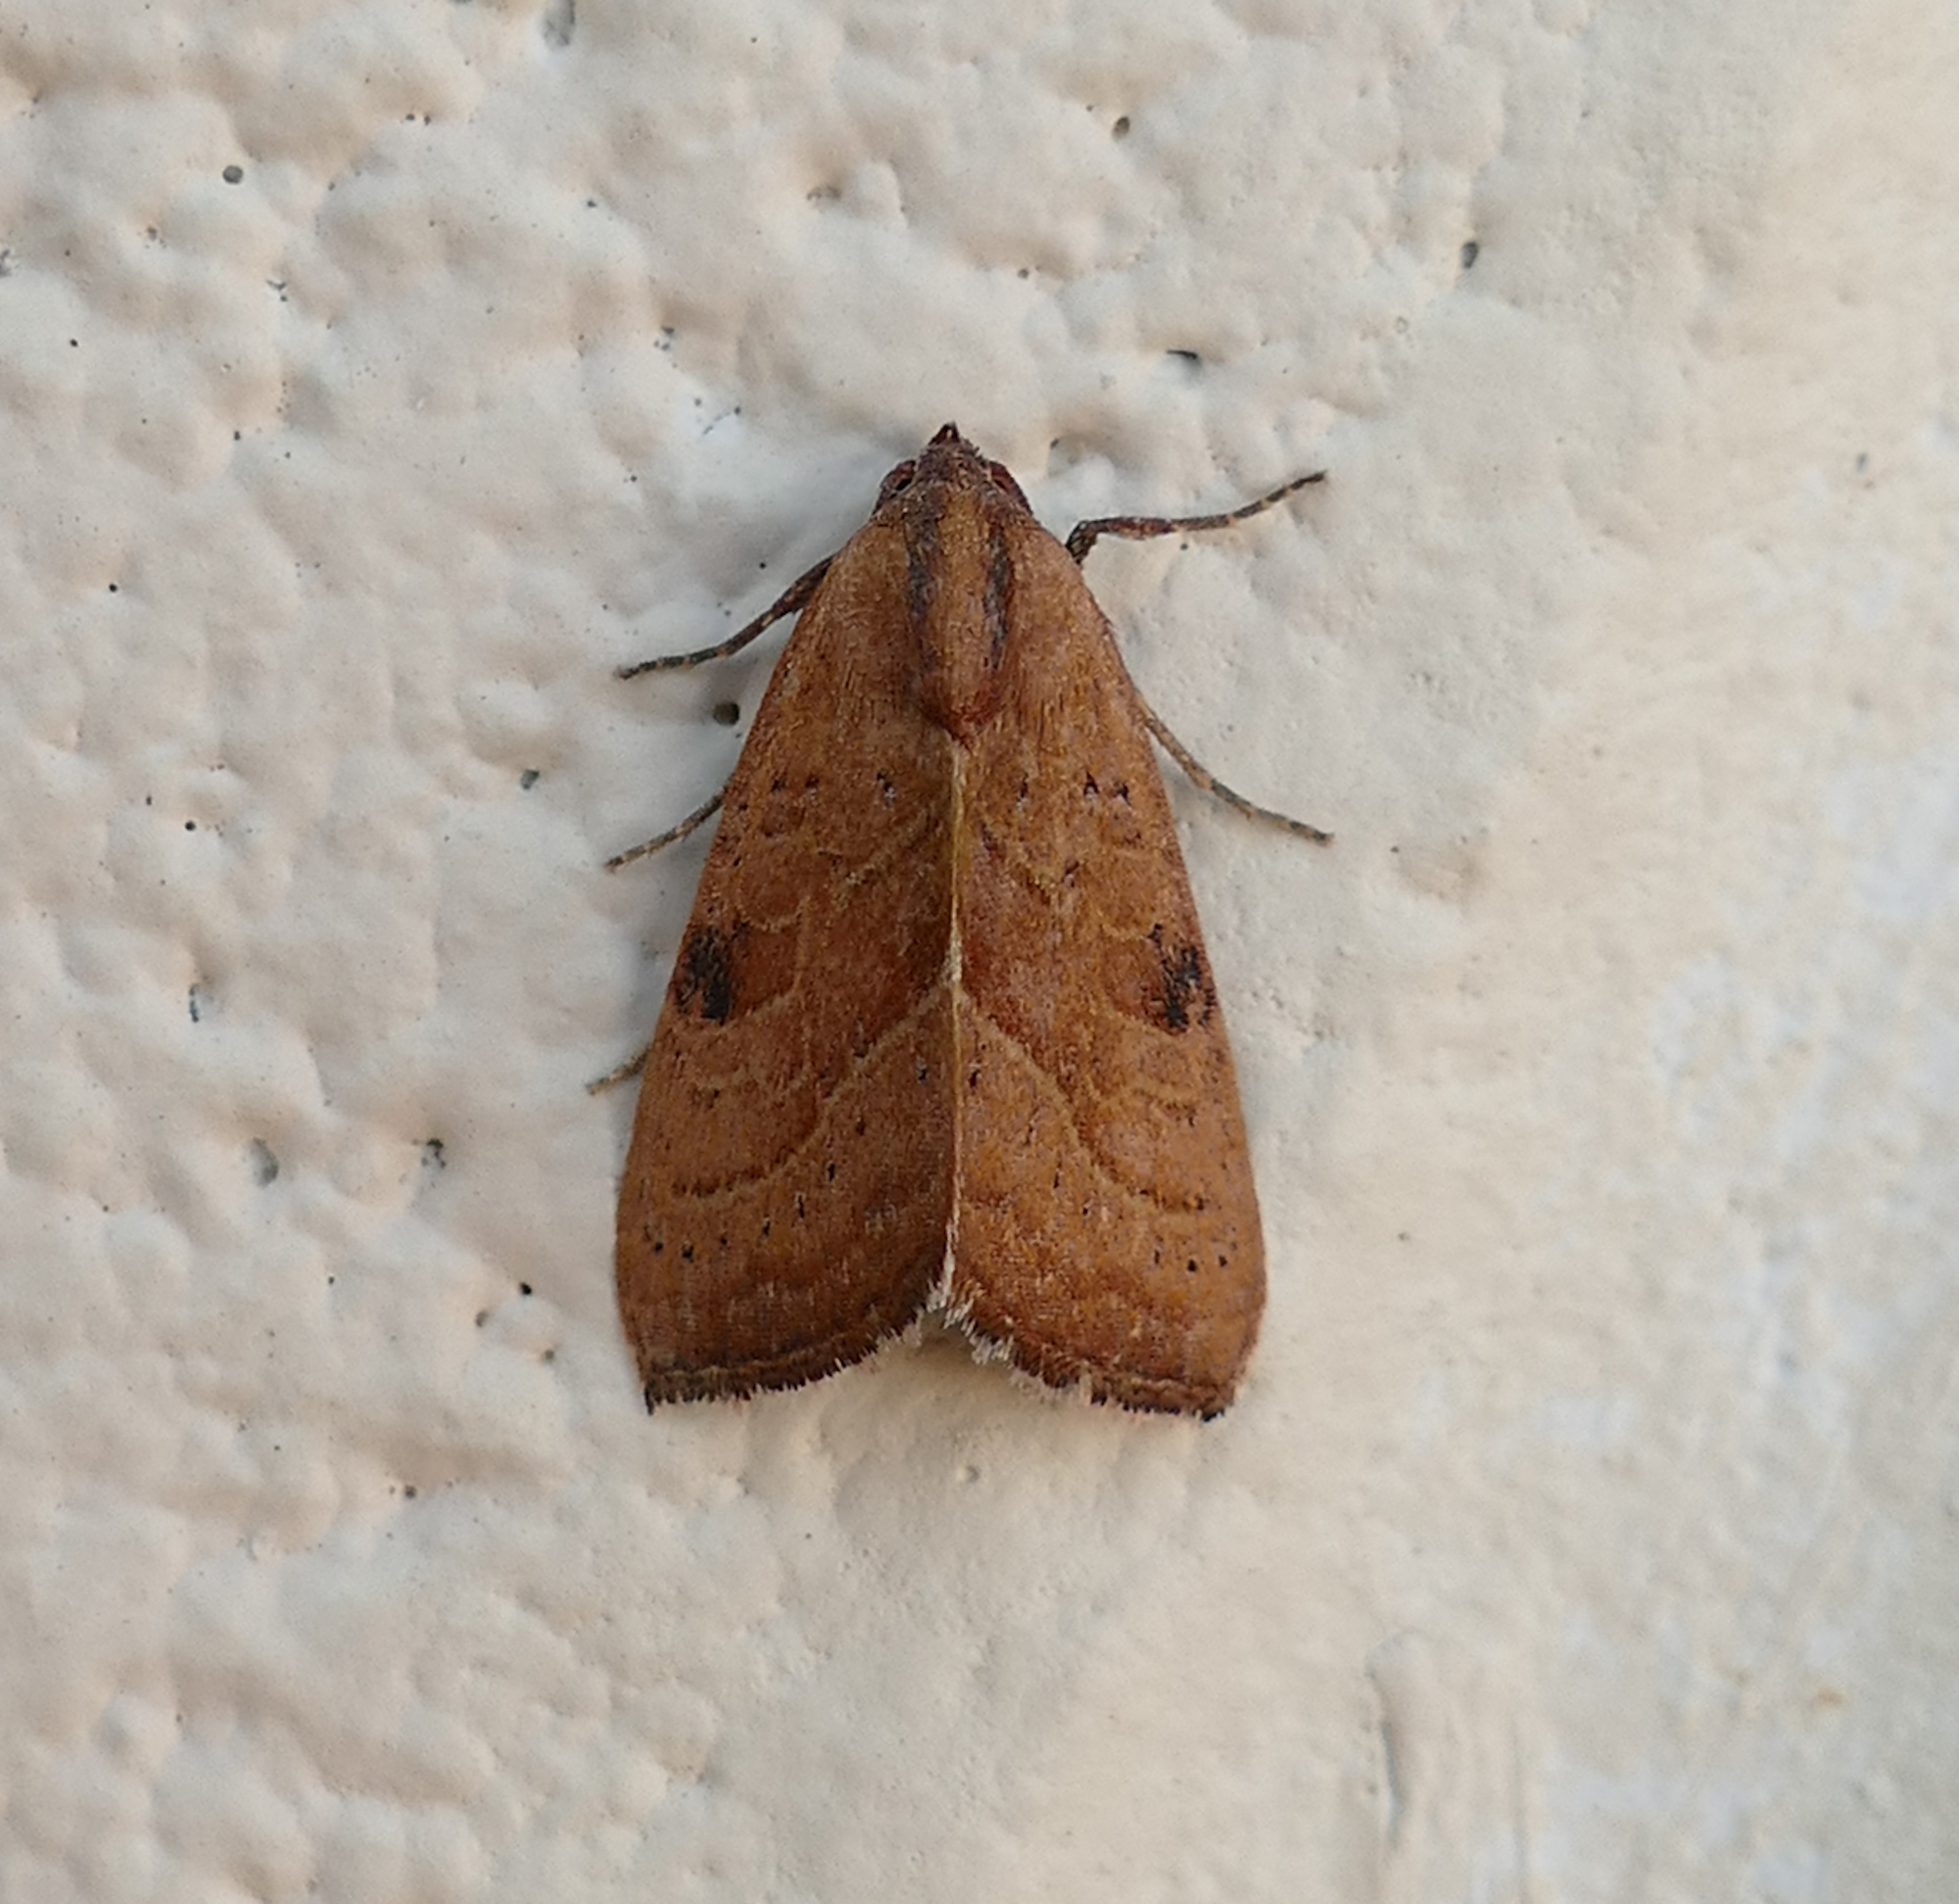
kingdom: Animalia
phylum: Arthropoda
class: Insecta
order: Lepidoptera
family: Noctuidae
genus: Galgula
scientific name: Galgula partita
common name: Wedgeling
